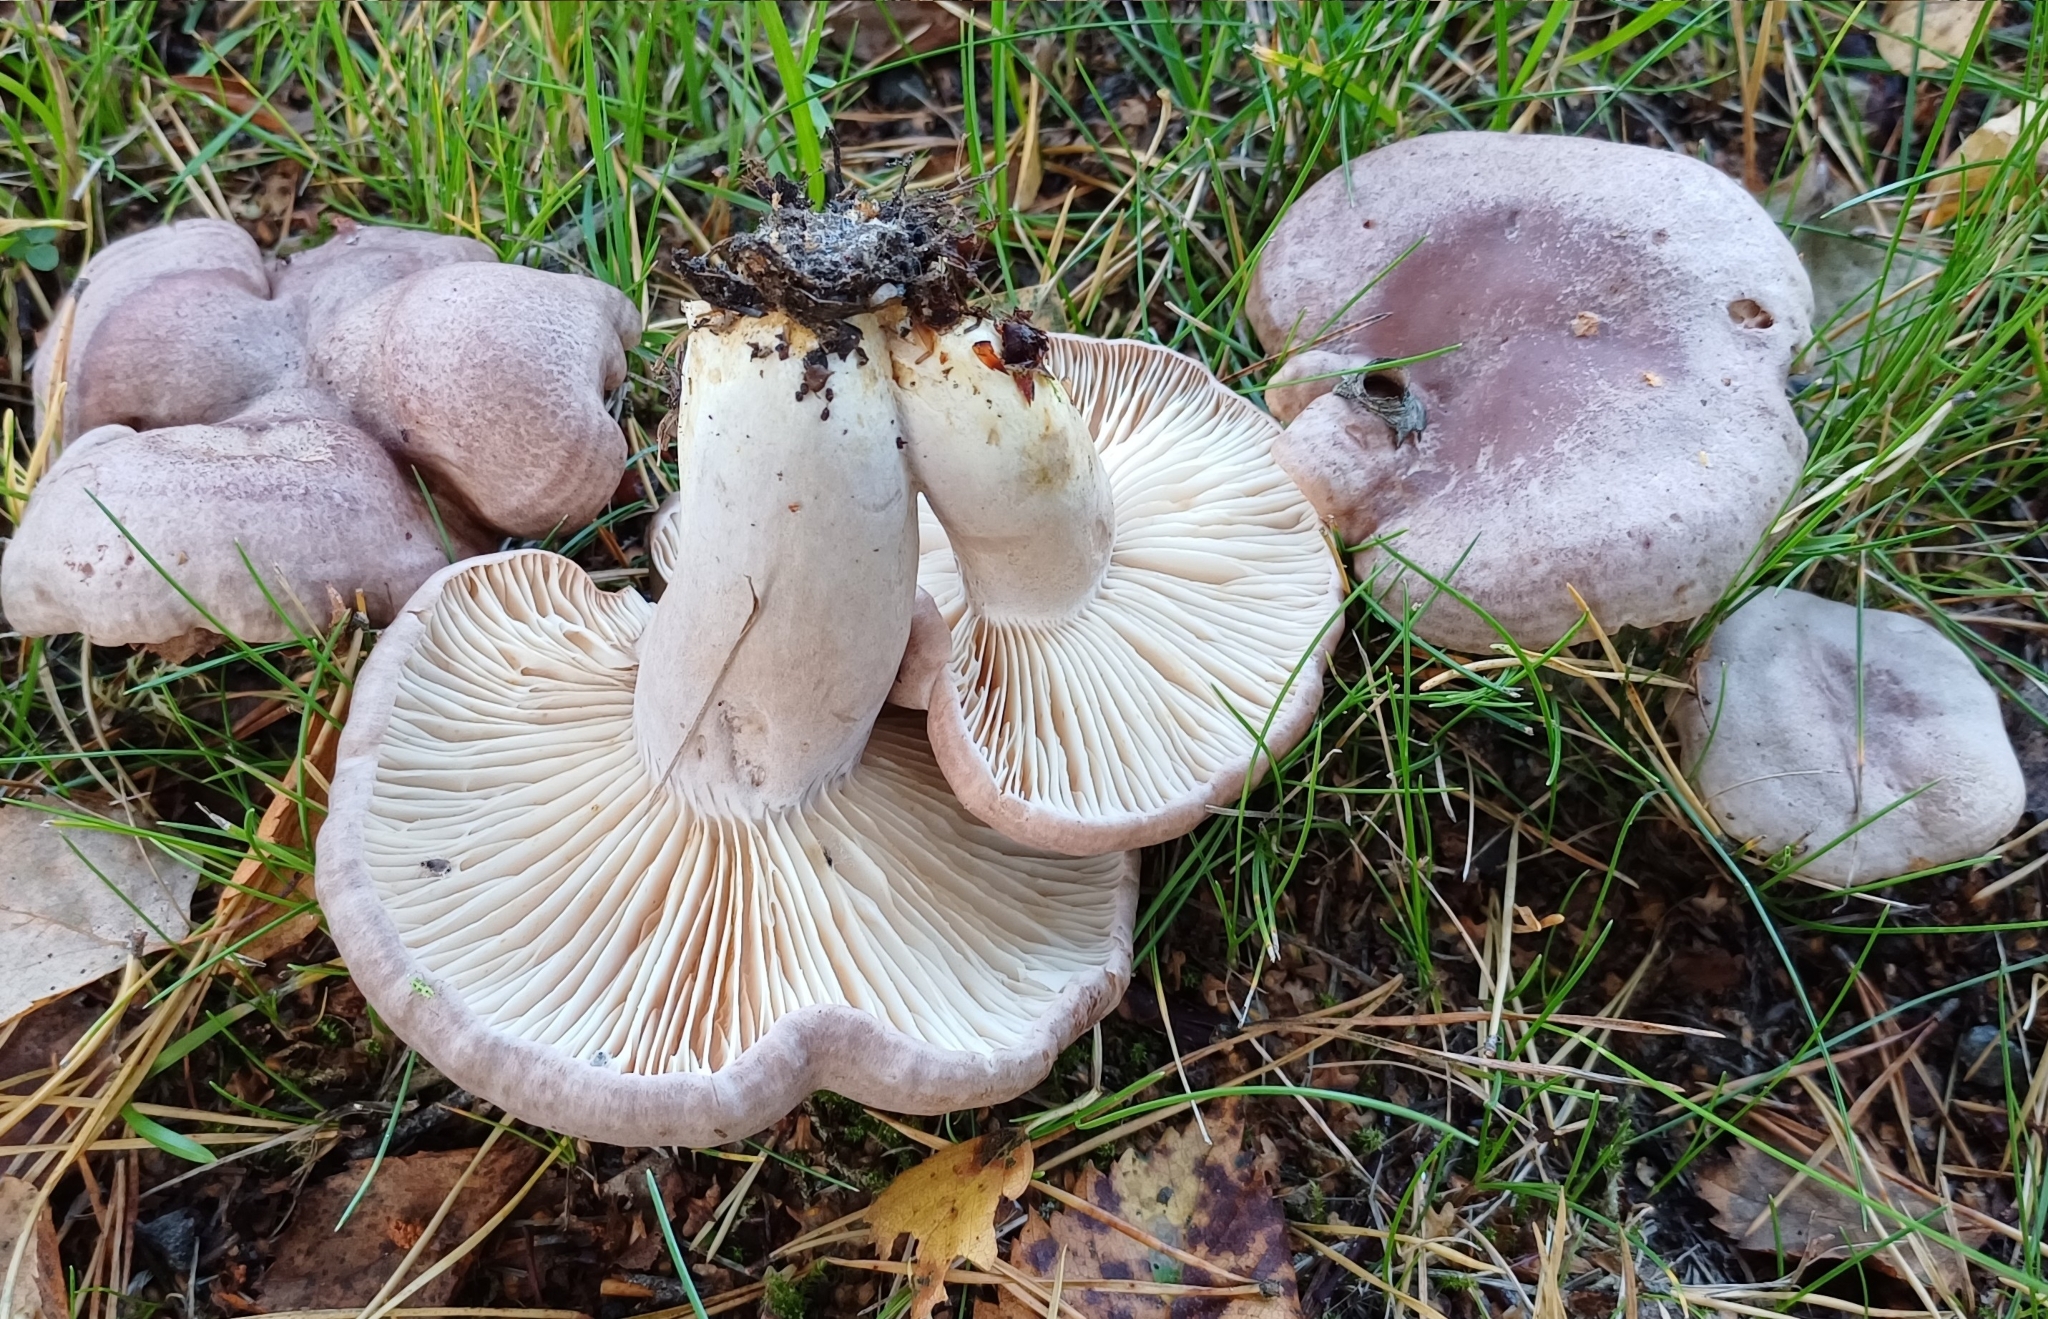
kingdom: Fungi
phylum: Basidiomycota
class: Agaricomycetes
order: Russulales
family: Russulaceae
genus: Lactarius
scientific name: Lactarius flexuosus
